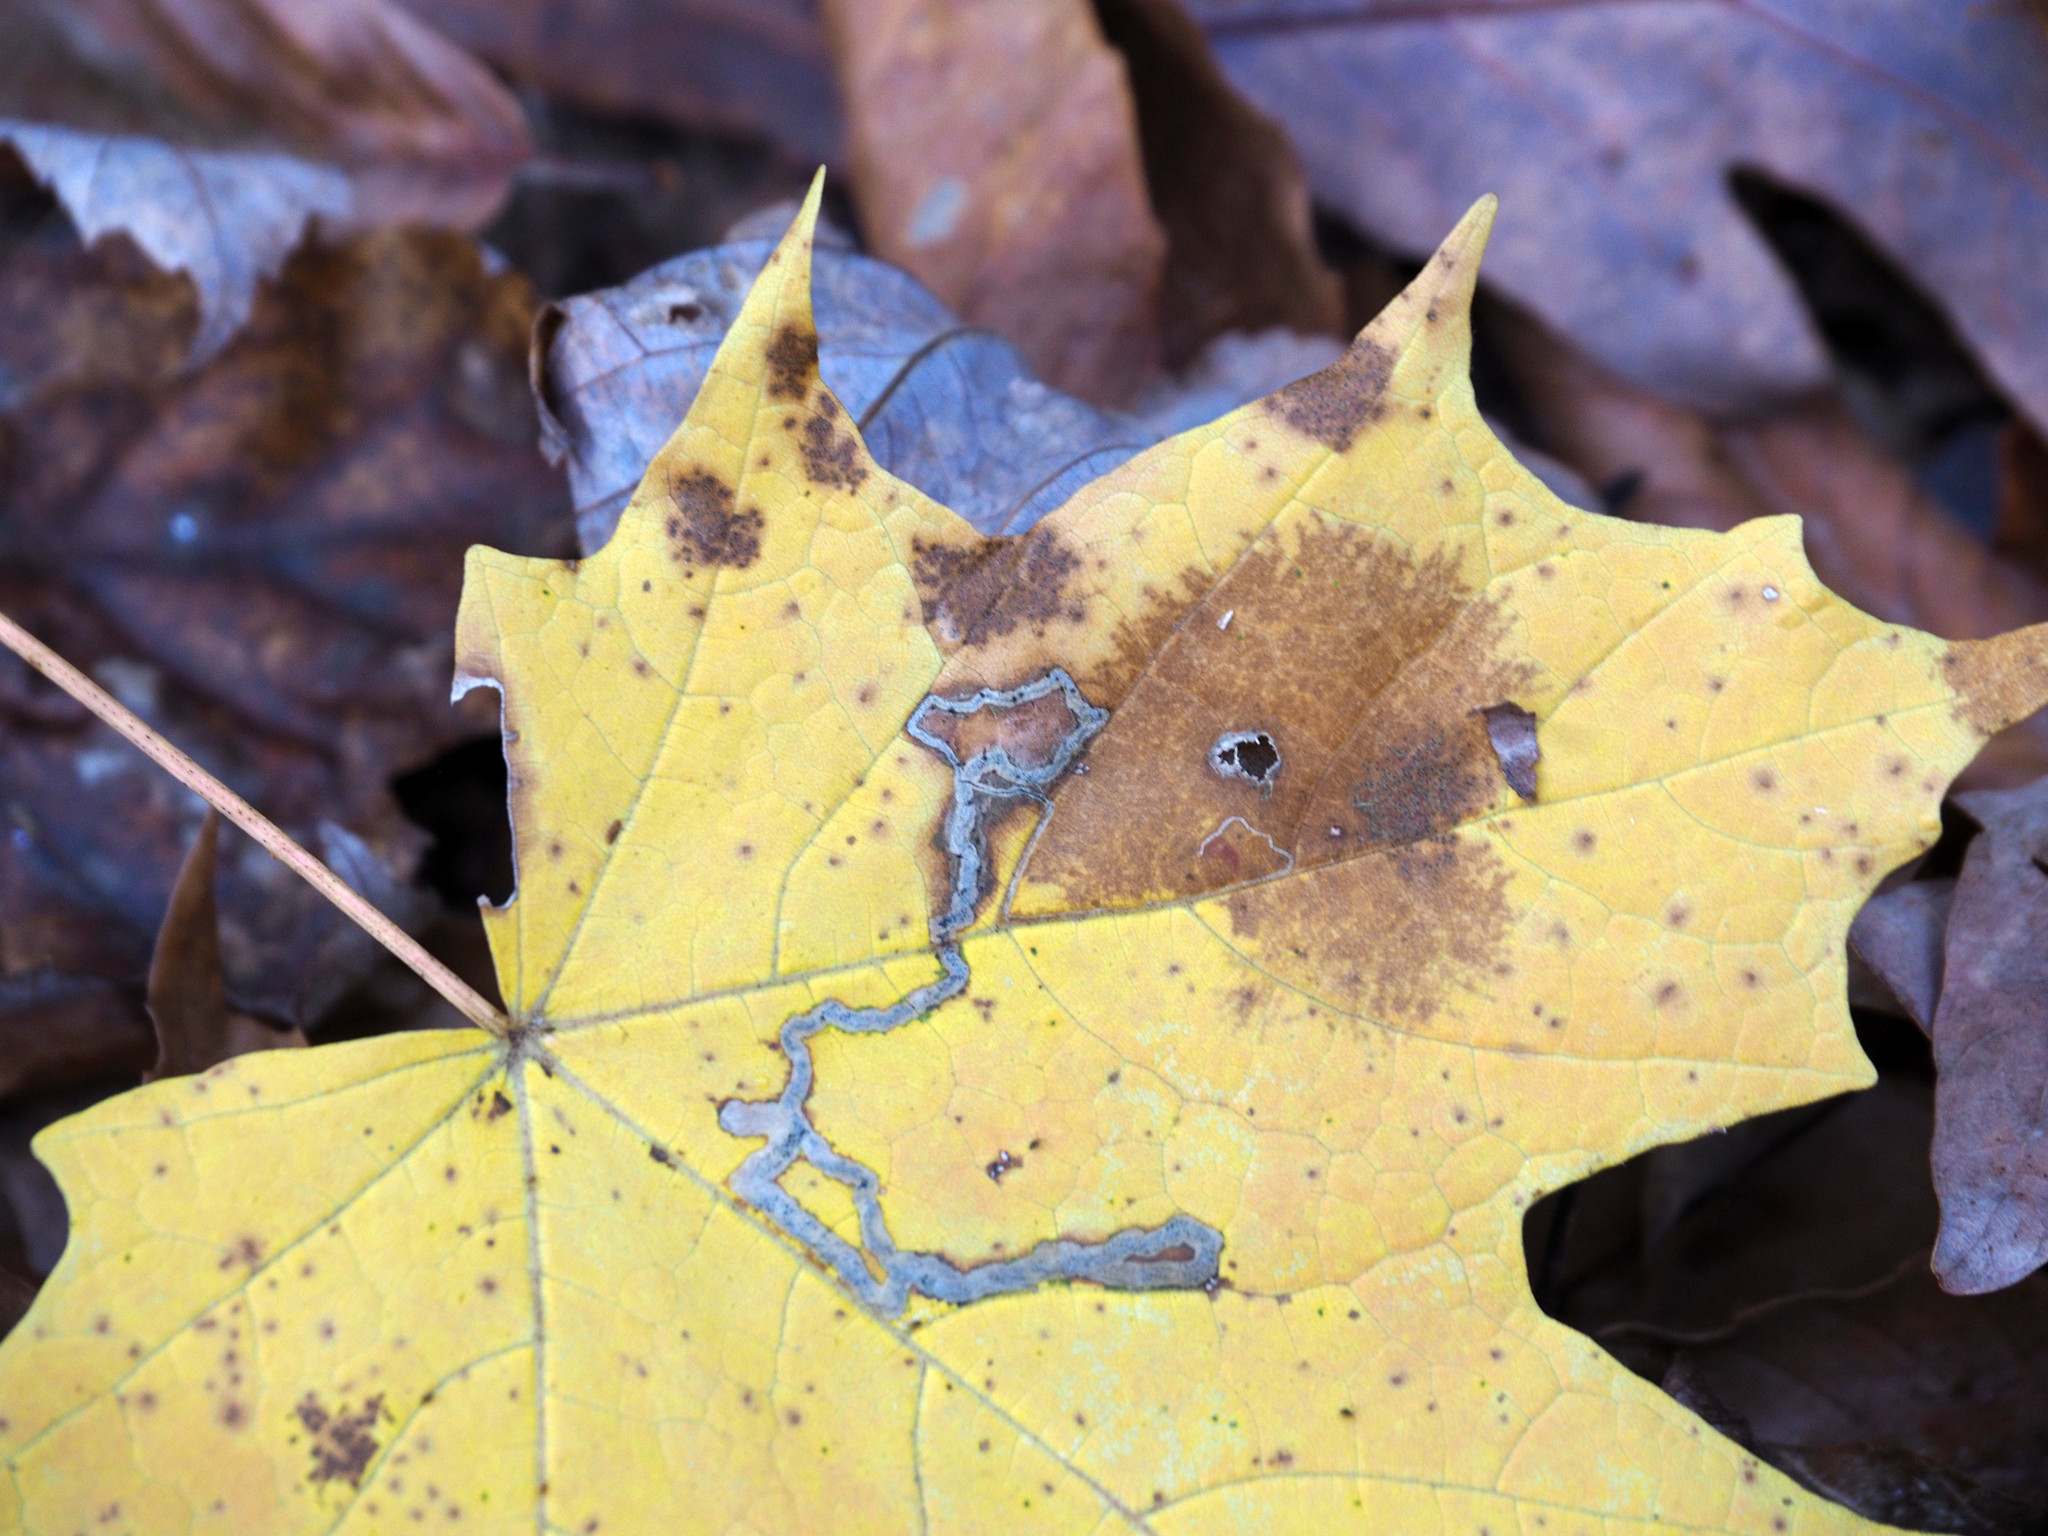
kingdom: Animalia
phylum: Arthropoda
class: Insecta
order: Lepidoptera
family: Nepticulidae
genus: Glaucolepis
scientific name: Glaucolepis saccharella
